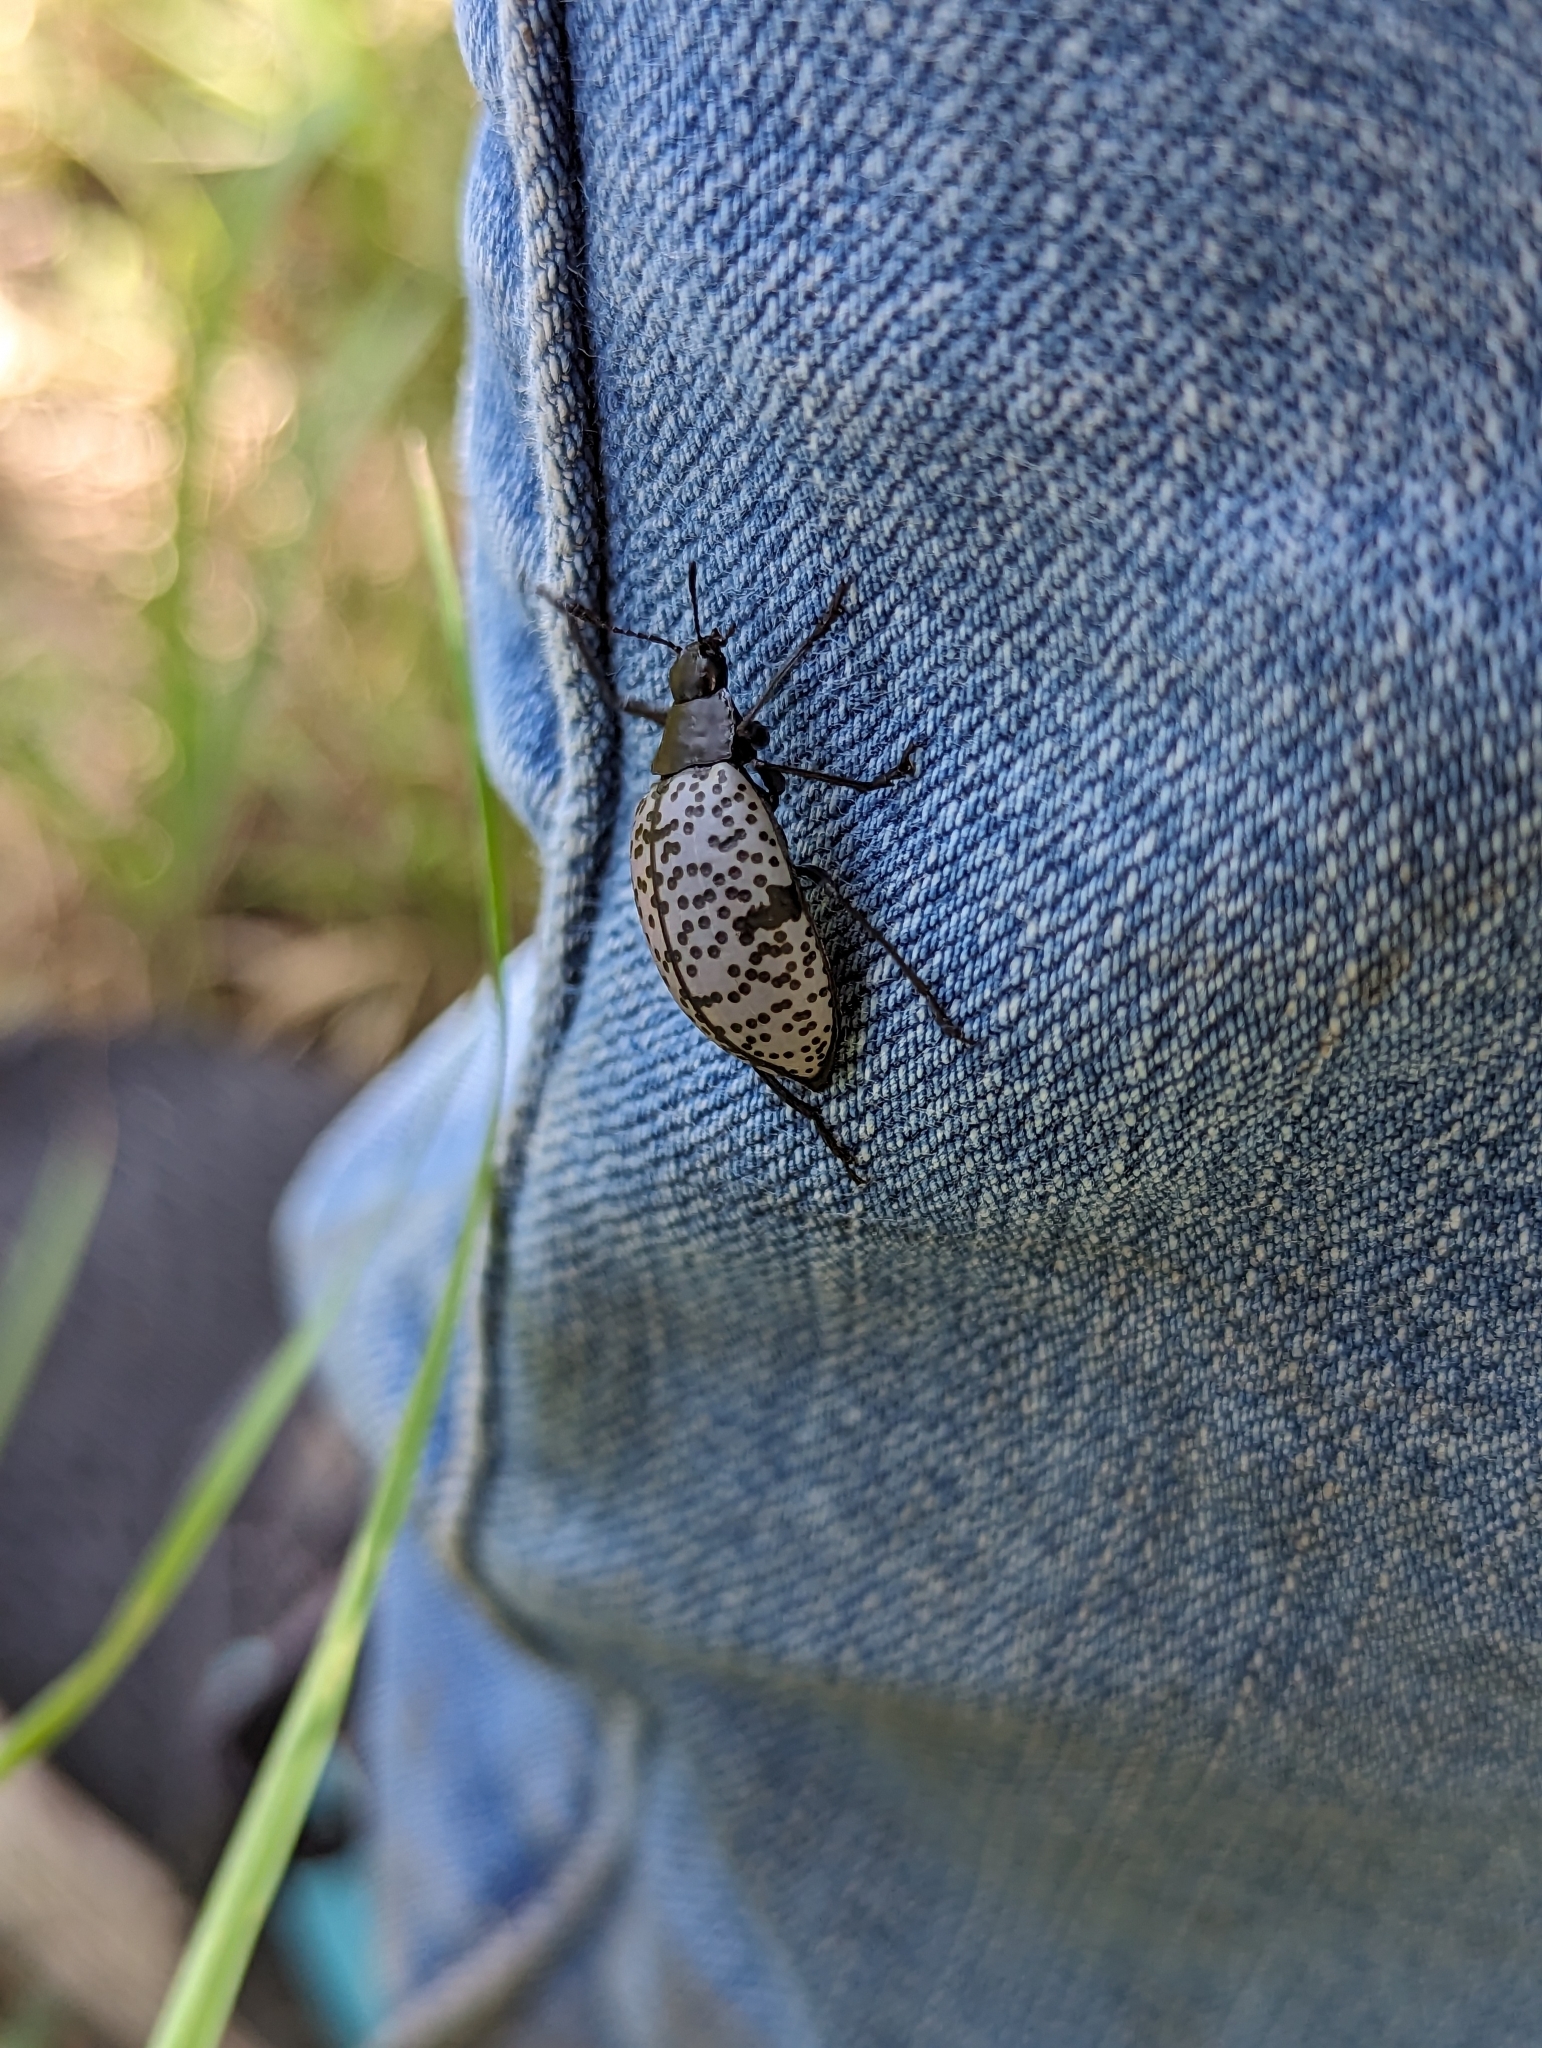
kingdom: Animalia
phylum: Arthropoda
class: Insecta
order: Coleoptera
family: Erotylidae
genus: Gibbifer
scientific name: Gibbifer californicus
